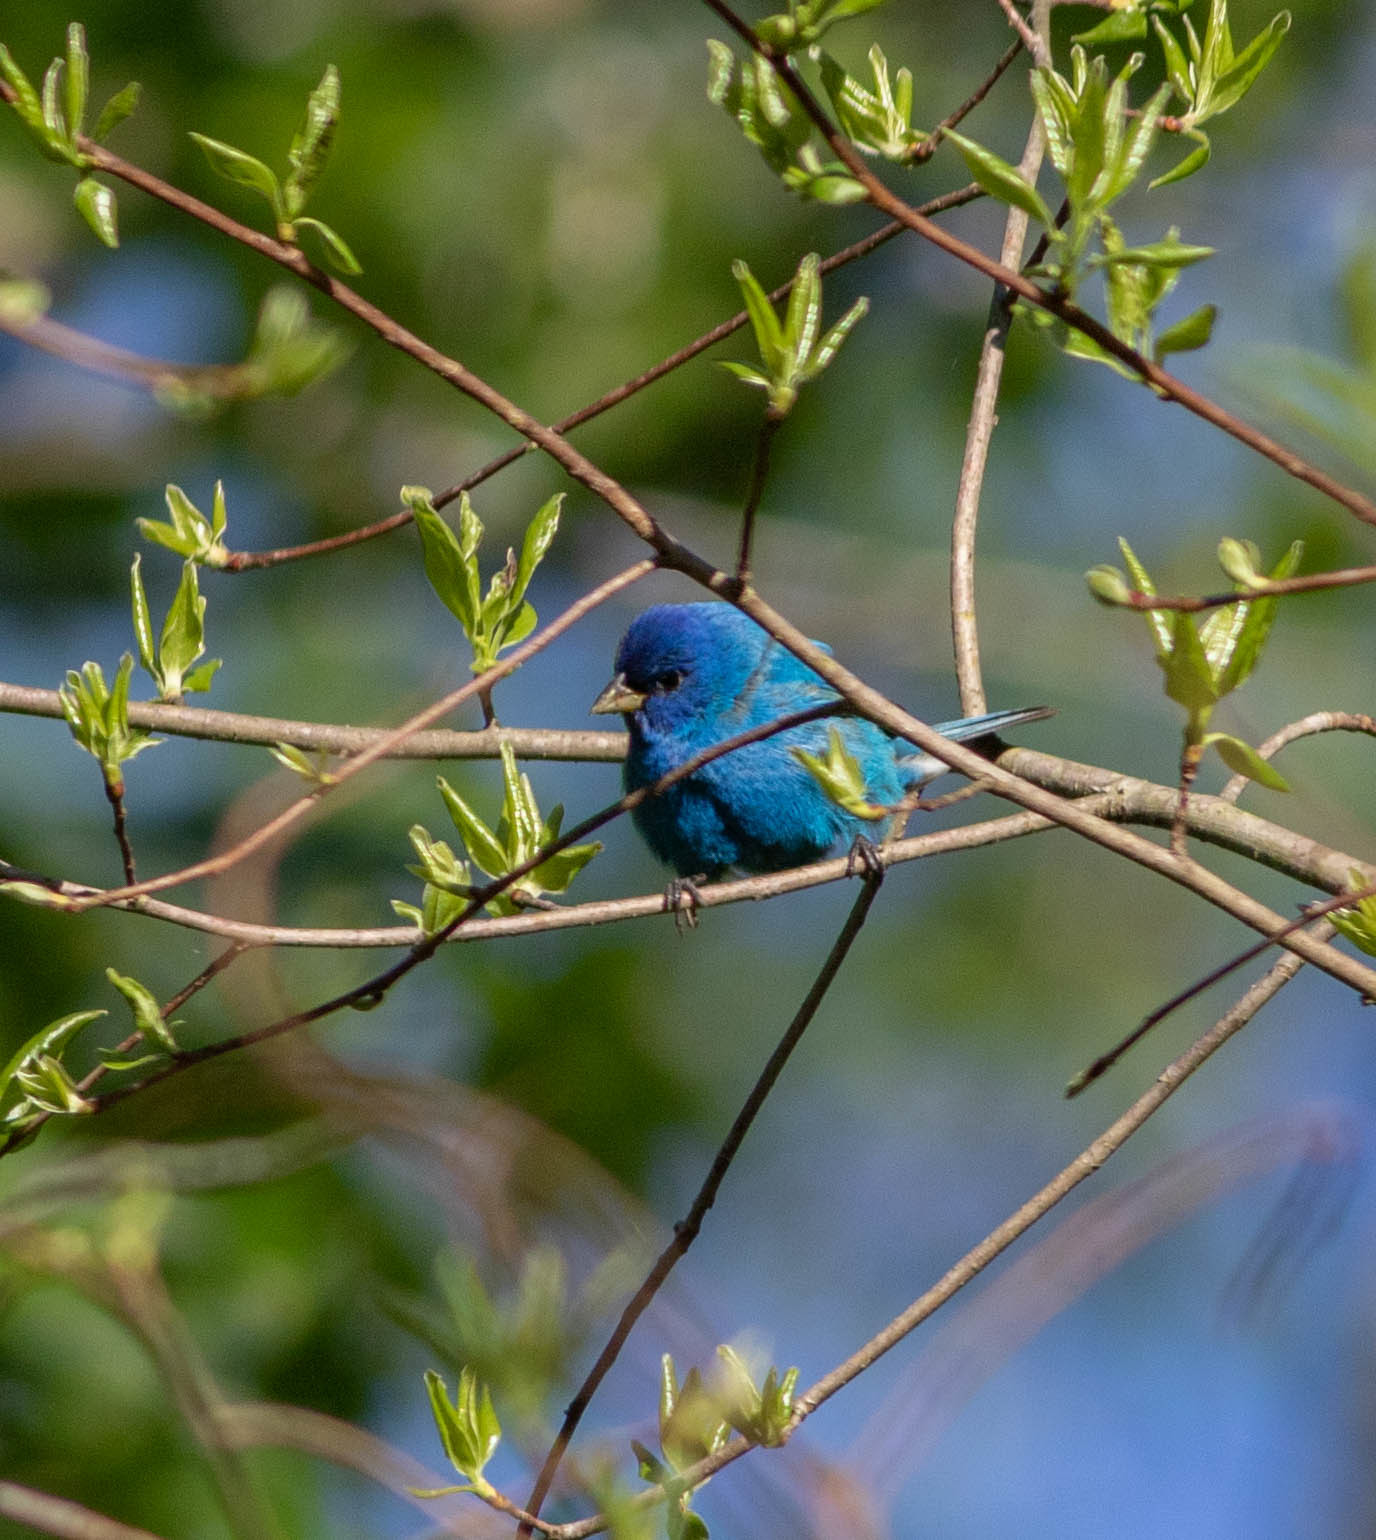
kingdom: Animalia
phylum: Chordata
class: Aves
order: Passeriformes
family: Cardinalidae
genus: Passerina
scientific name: Passerina cyanea
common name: Indigo bunting
